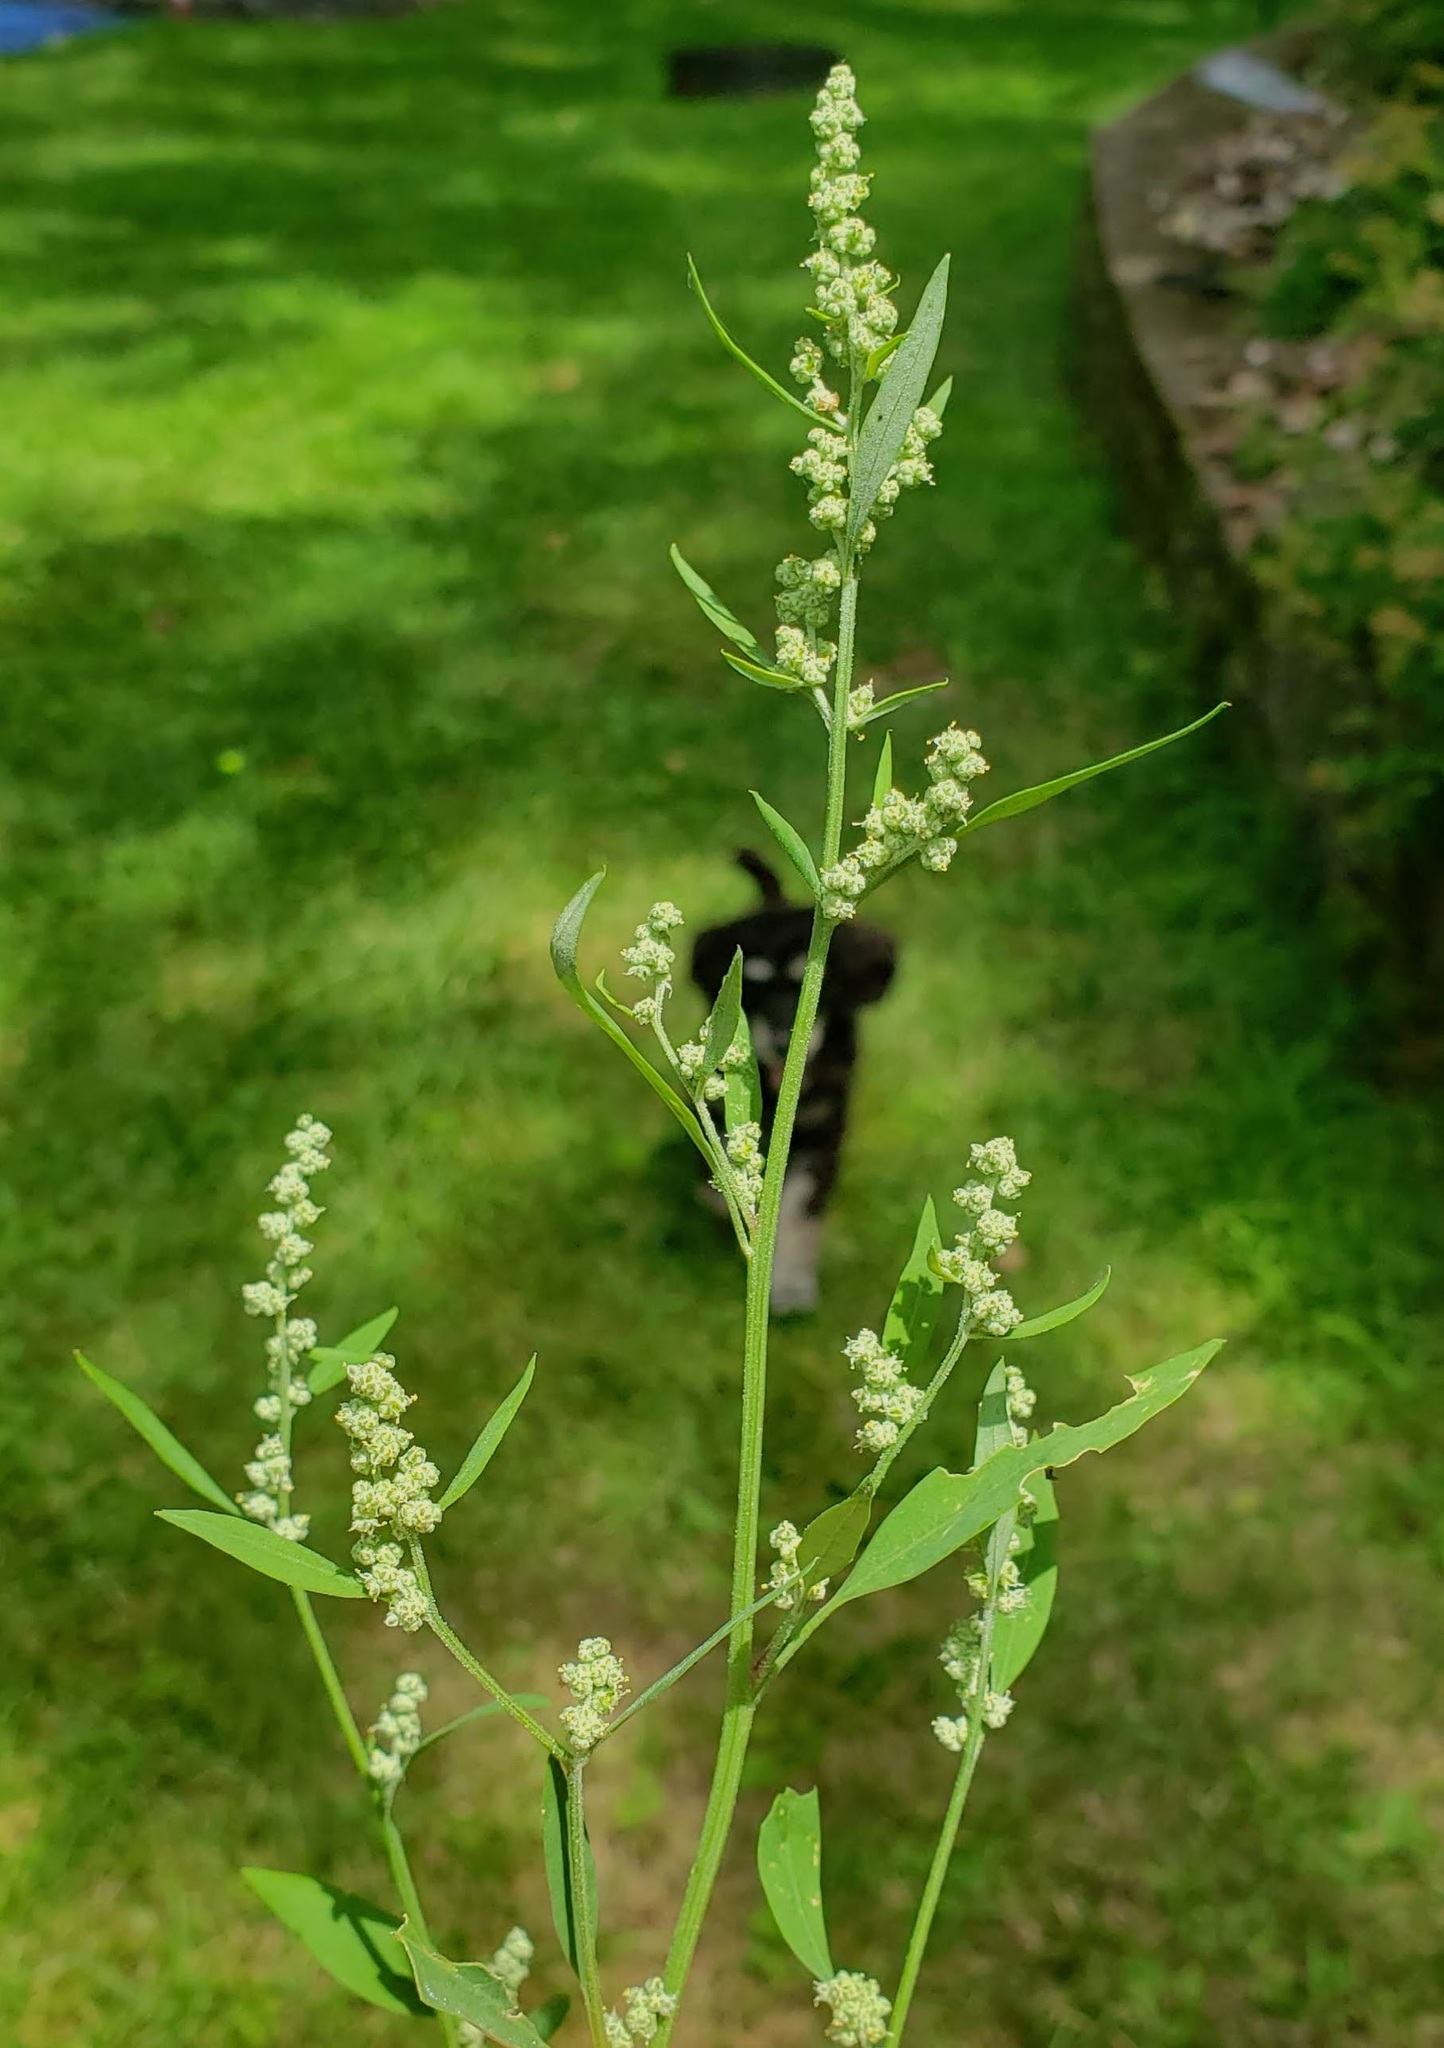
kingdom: Plantae
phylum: Tracheophyta
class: Magnoliopsida
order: Caryophyllales
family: Amaranthaceae
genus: Chenopodium
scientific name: Chenopodium album
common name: Fat-hen
